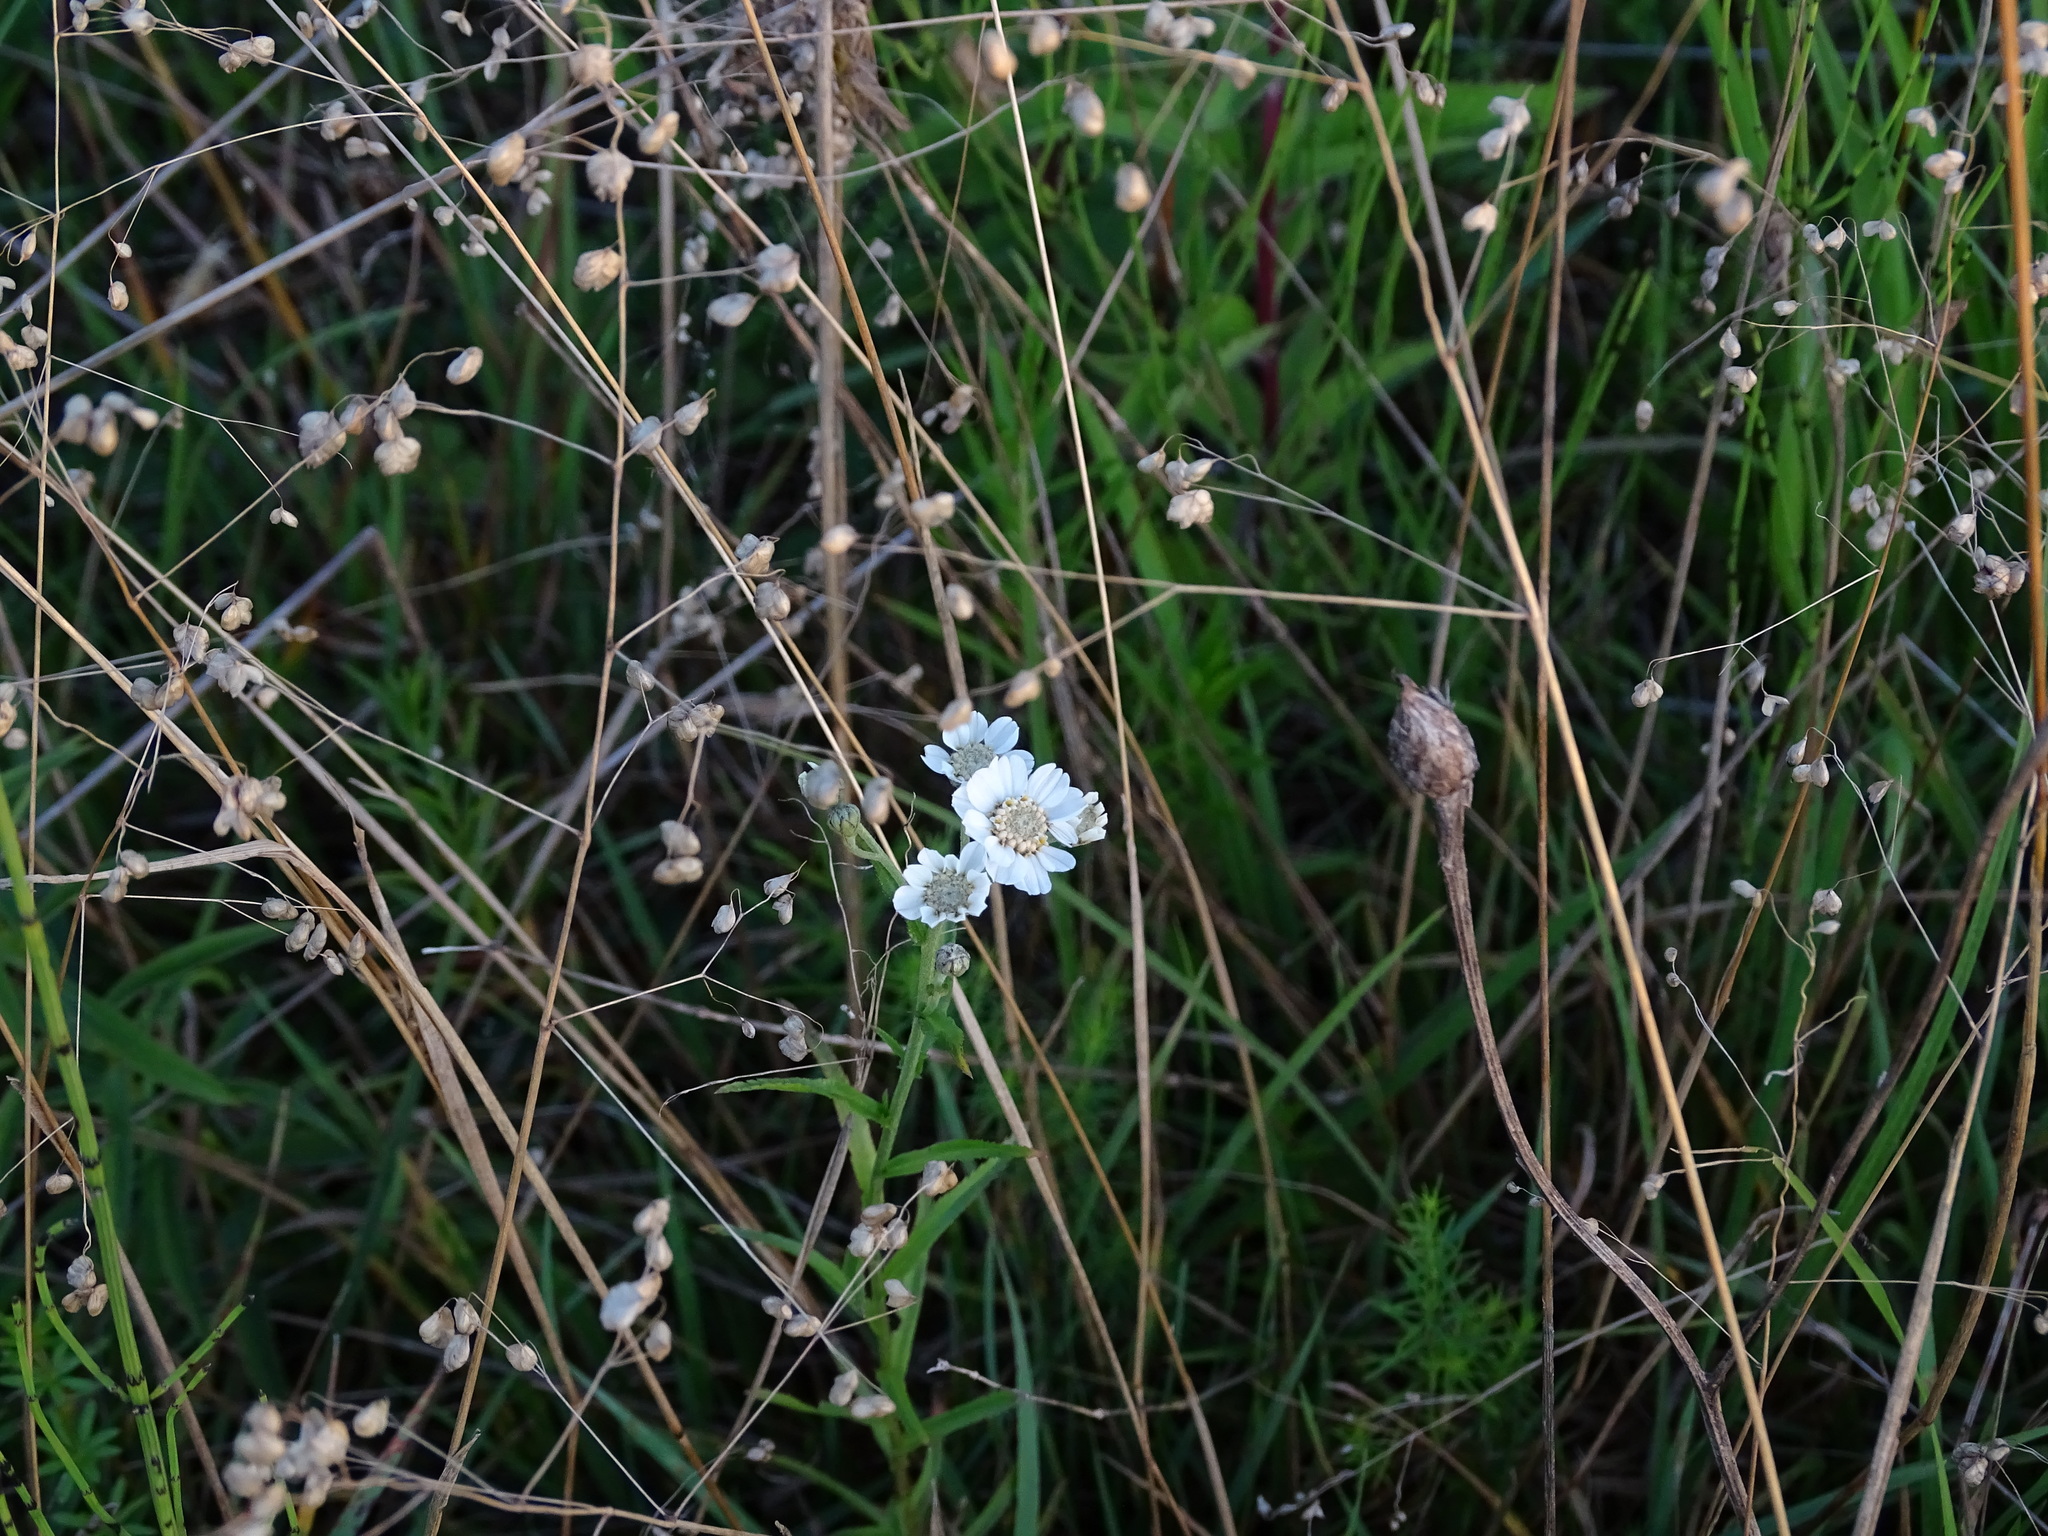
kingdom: Plantae
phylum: Tracheophyta
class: Magnoliopsida
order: Asterales
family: Asteraceae
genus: Achillea
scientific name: Achillea ptarmica
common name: Sneezeweed
